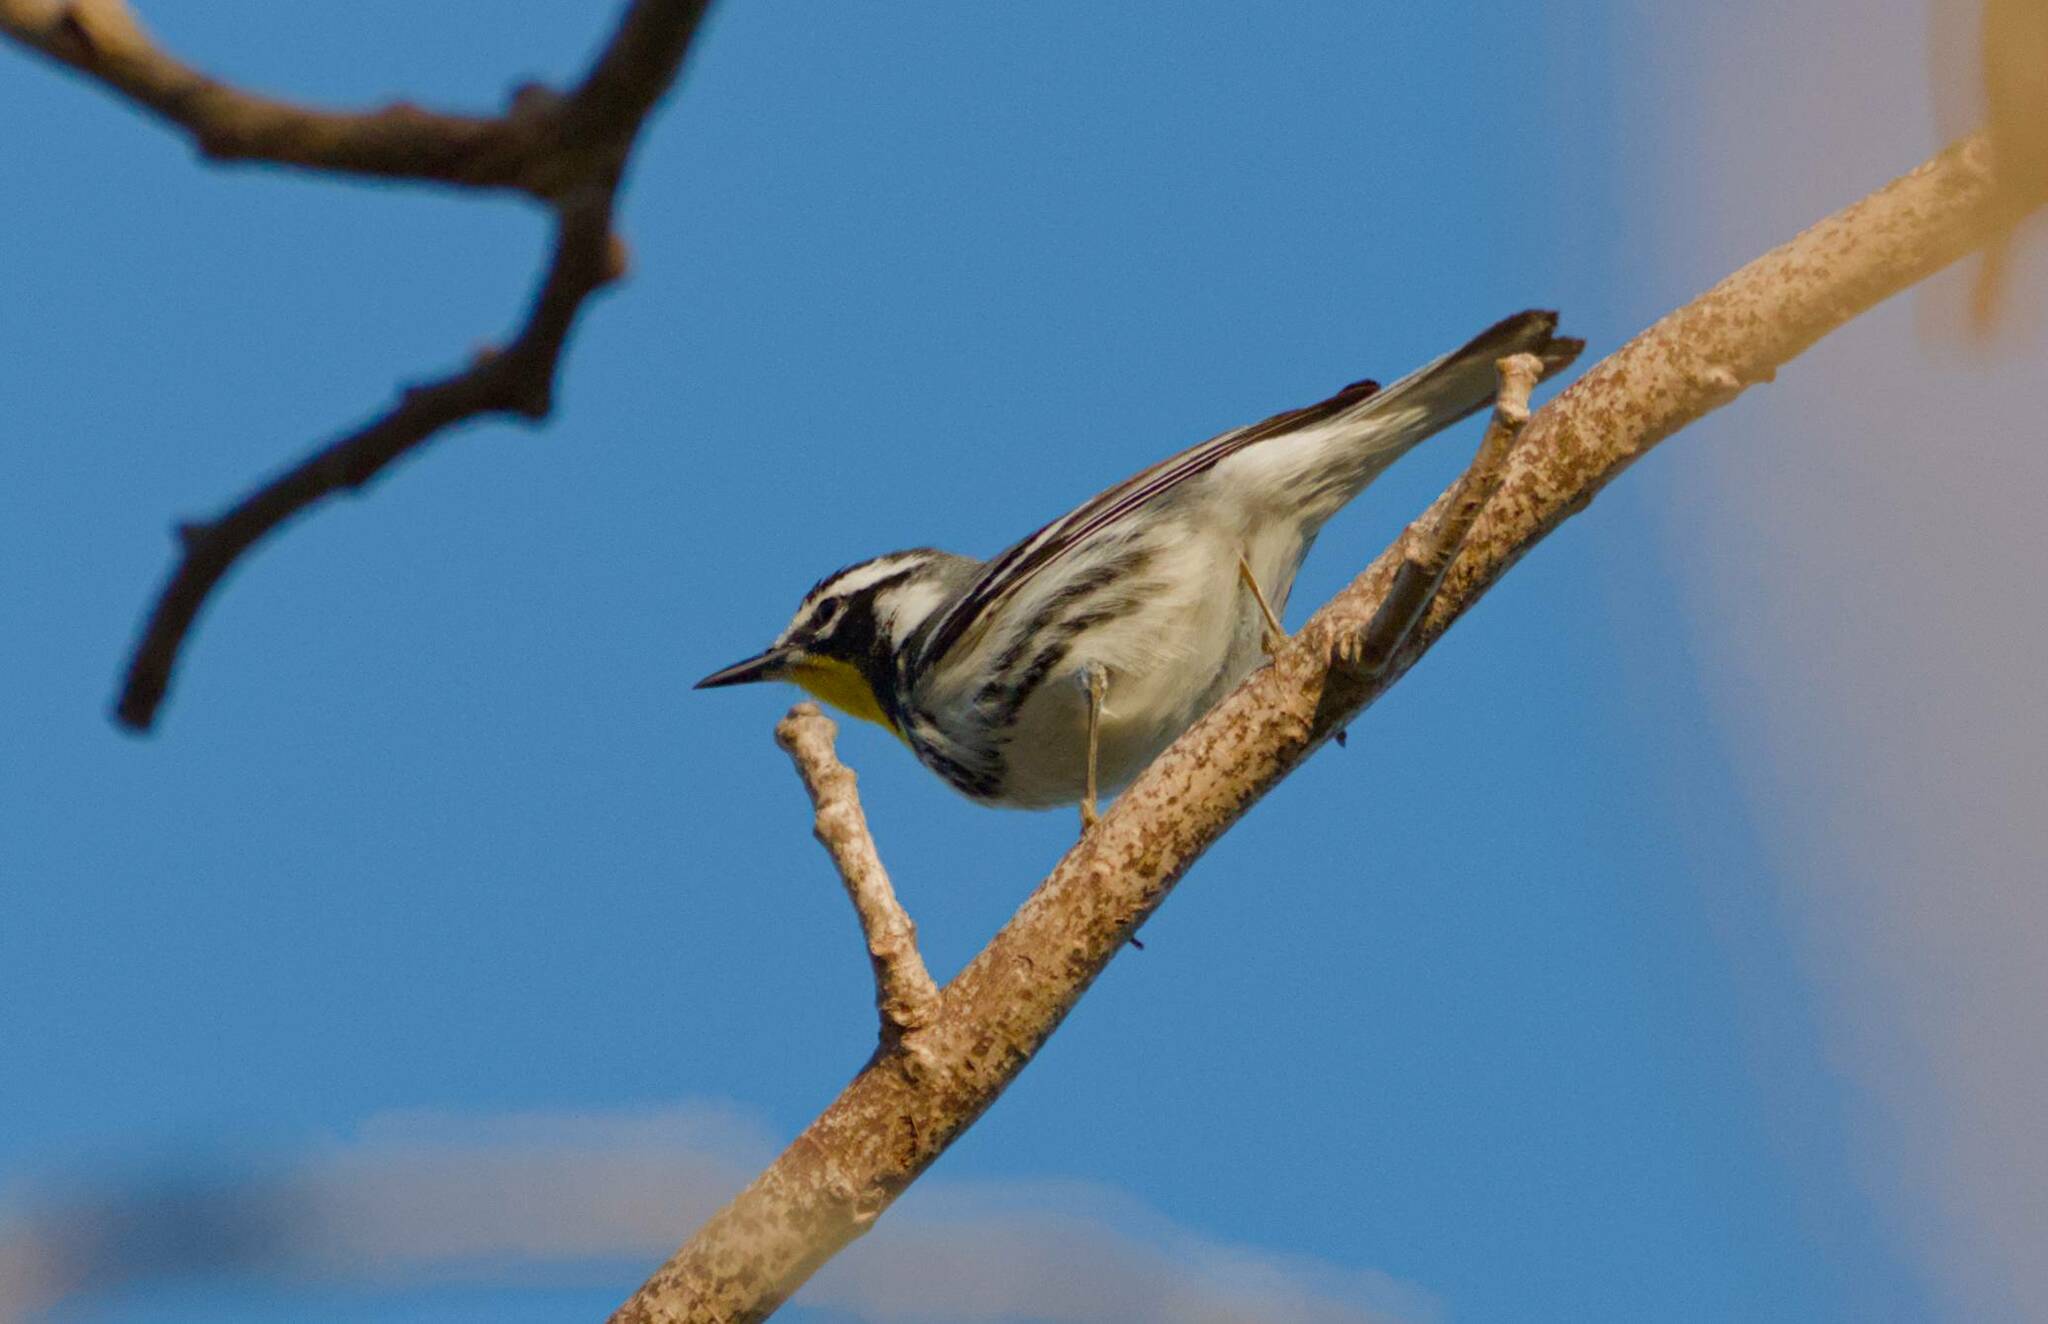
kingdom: Animalia
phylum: Chordata
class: Aves
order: Passeriformes
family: Parulidae
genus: Setophaga
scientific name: Setophaga dominica
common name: Yellow-throated warbler
